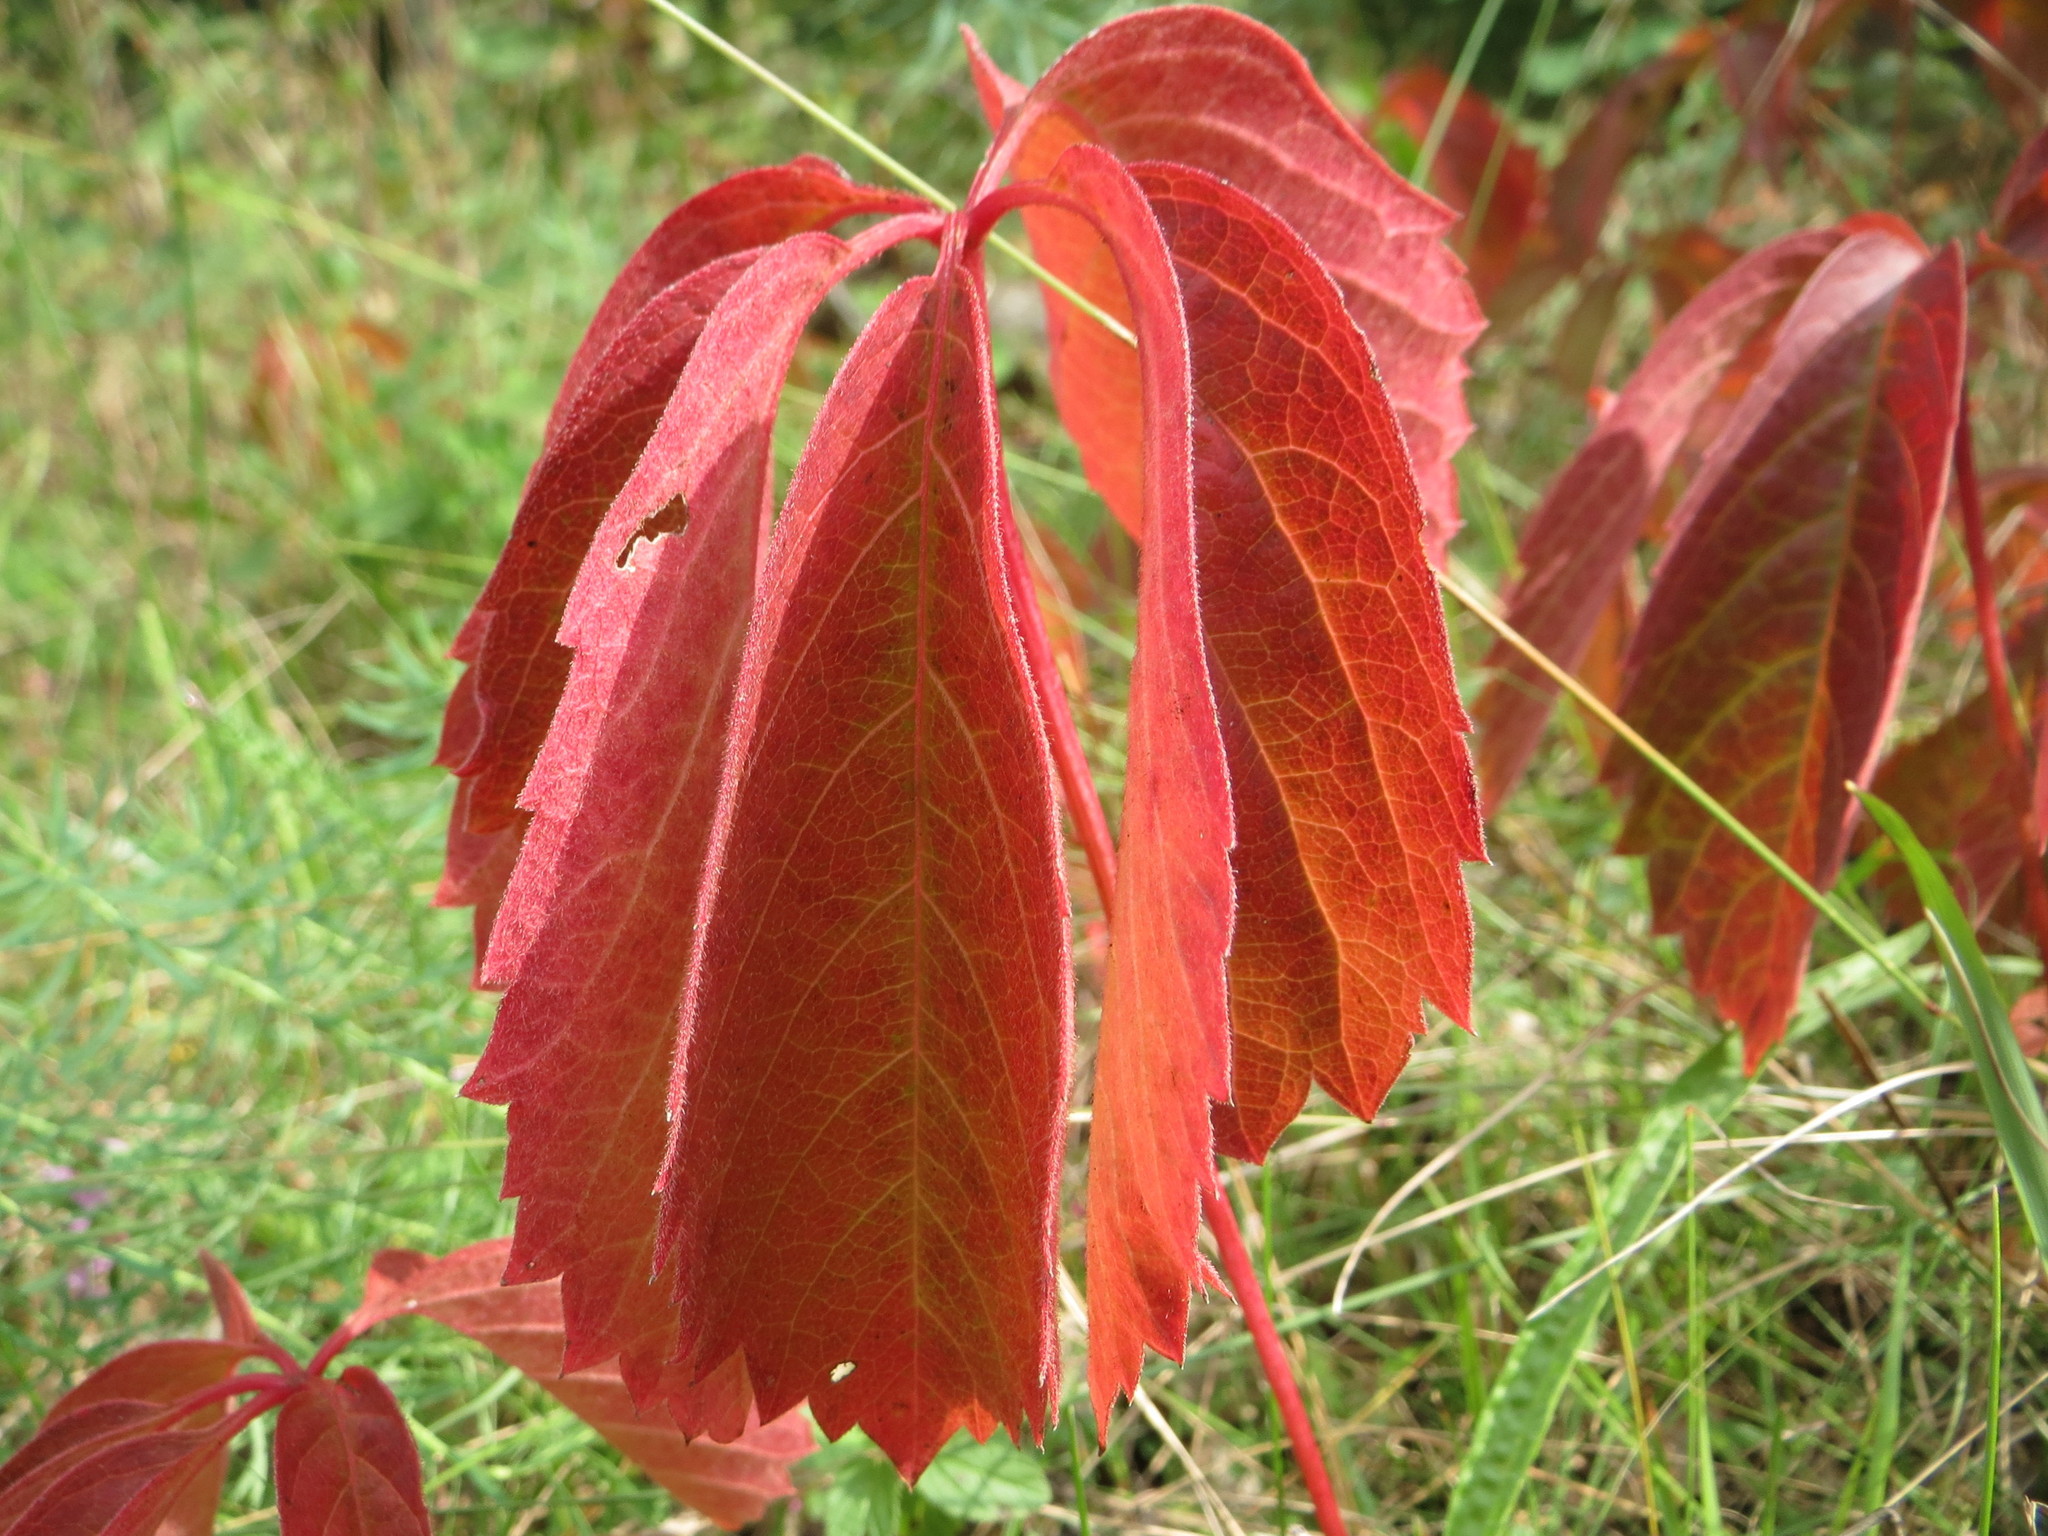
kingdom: Plantae
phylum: Tracheophyta
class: Magnoliopsida
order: Vitales
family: Vitaceae
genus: Parthenocissus
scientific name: Parthenocissus quinquefolia
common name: Virginia-creeper
